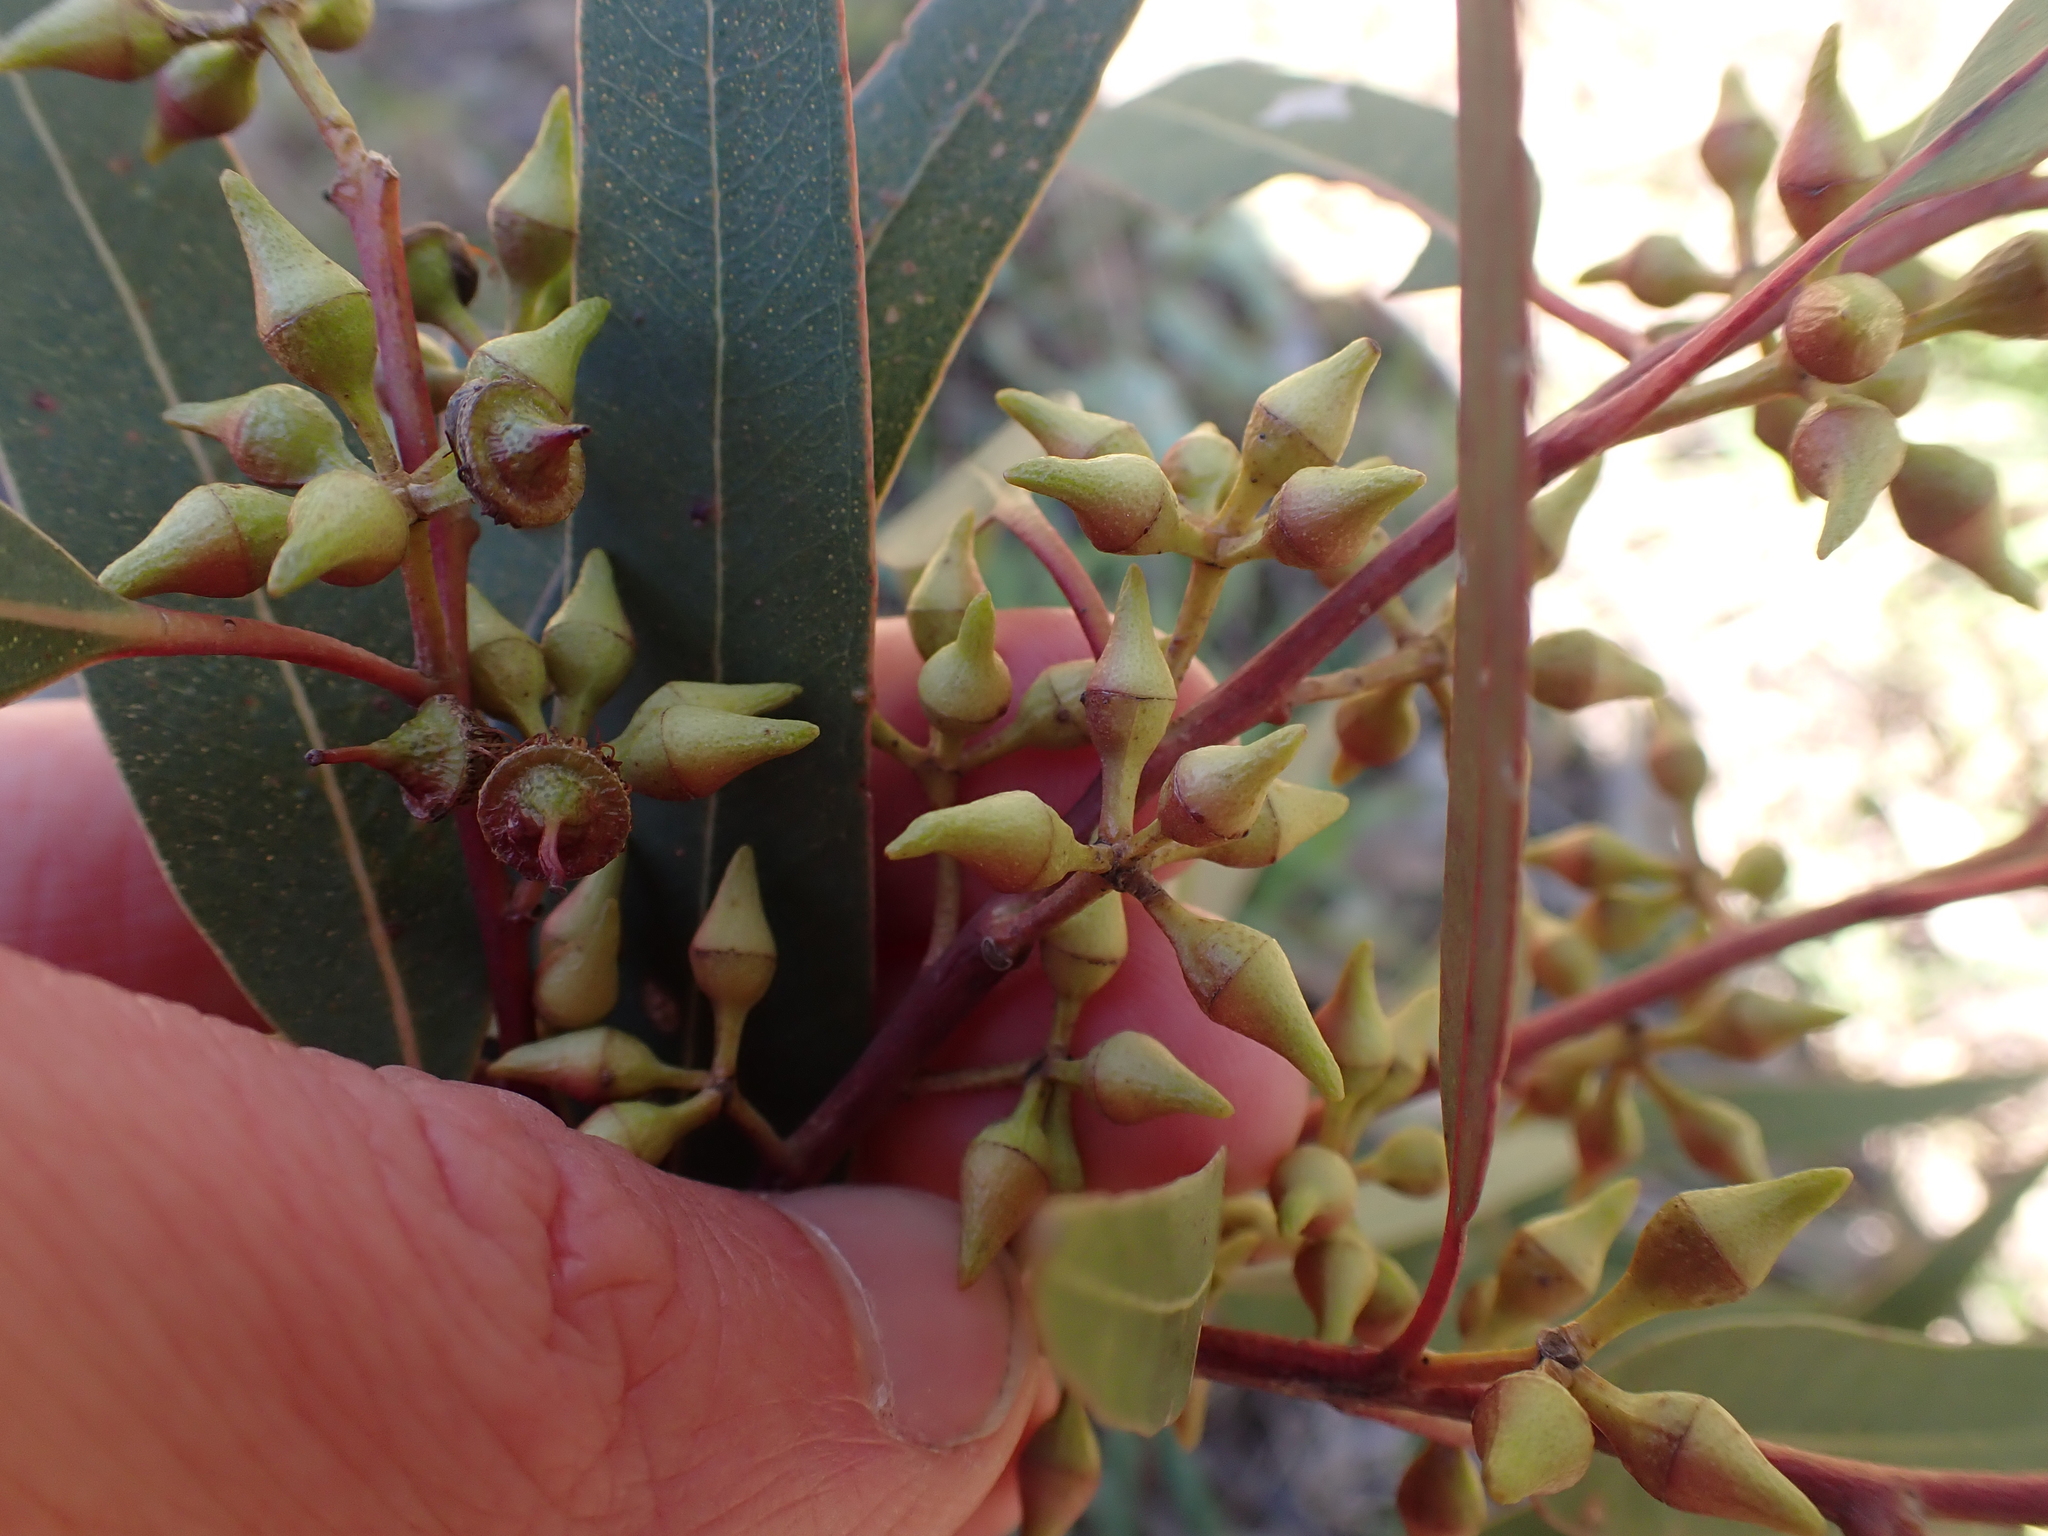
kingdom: Plantae
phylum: Tracheophyta
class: Magnoliopsida
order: Myrtales
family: Myrtaceae
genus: Eucalyptus
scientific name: Eucalyptus camaldulensis
